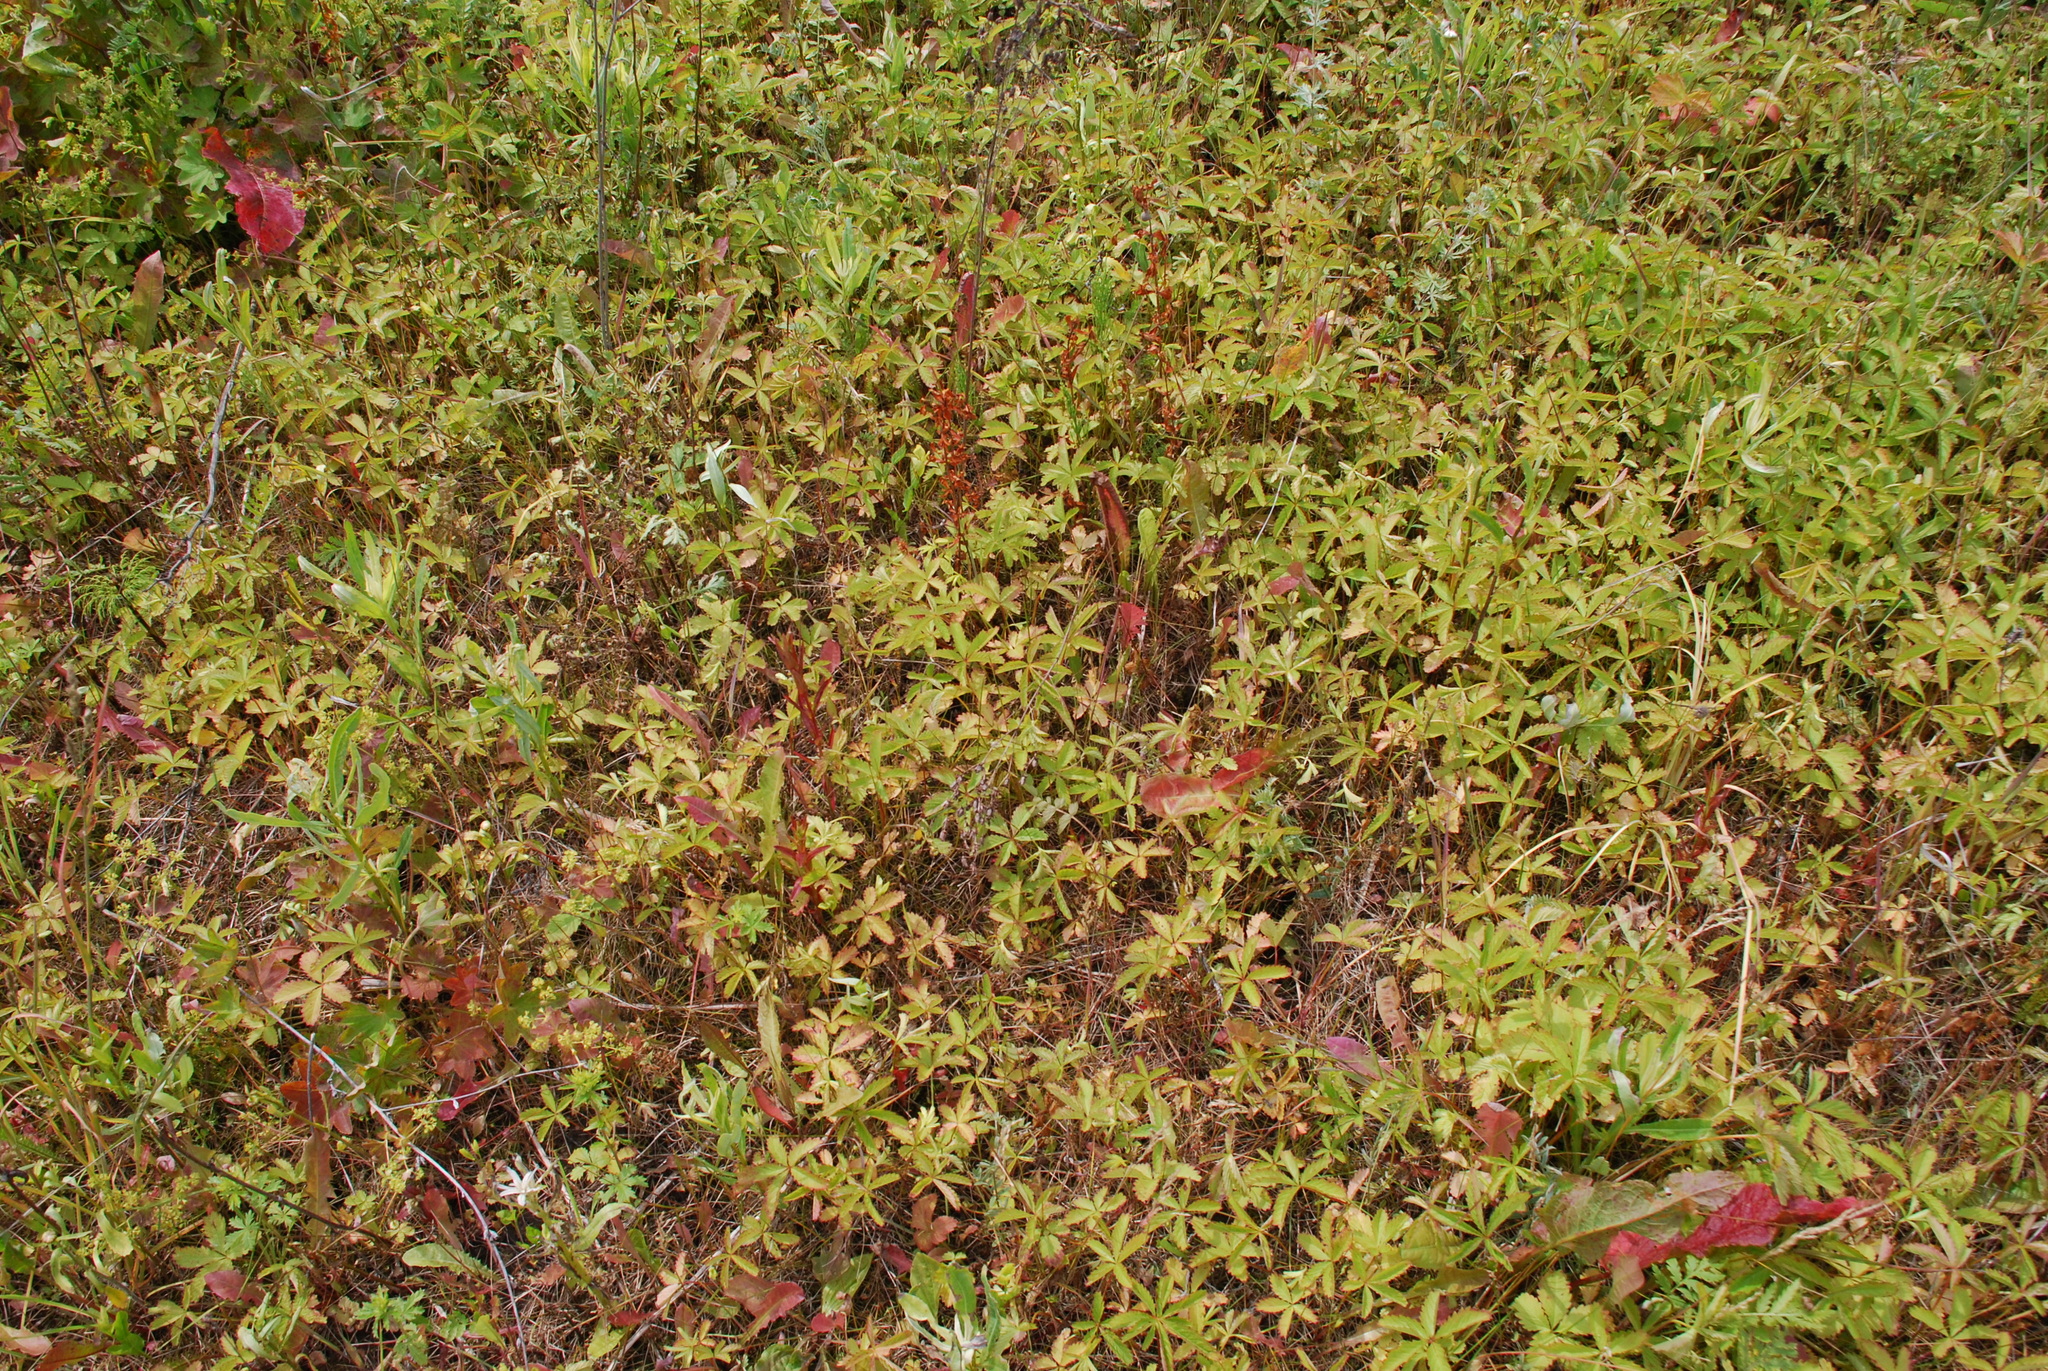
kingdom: Plantae
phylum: Tracheophyta
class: Magnoliopsida
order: Rosales
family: Rosaceae
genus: Potentilla
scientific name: Potentilla reptans
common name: Creeping cinquefoil
